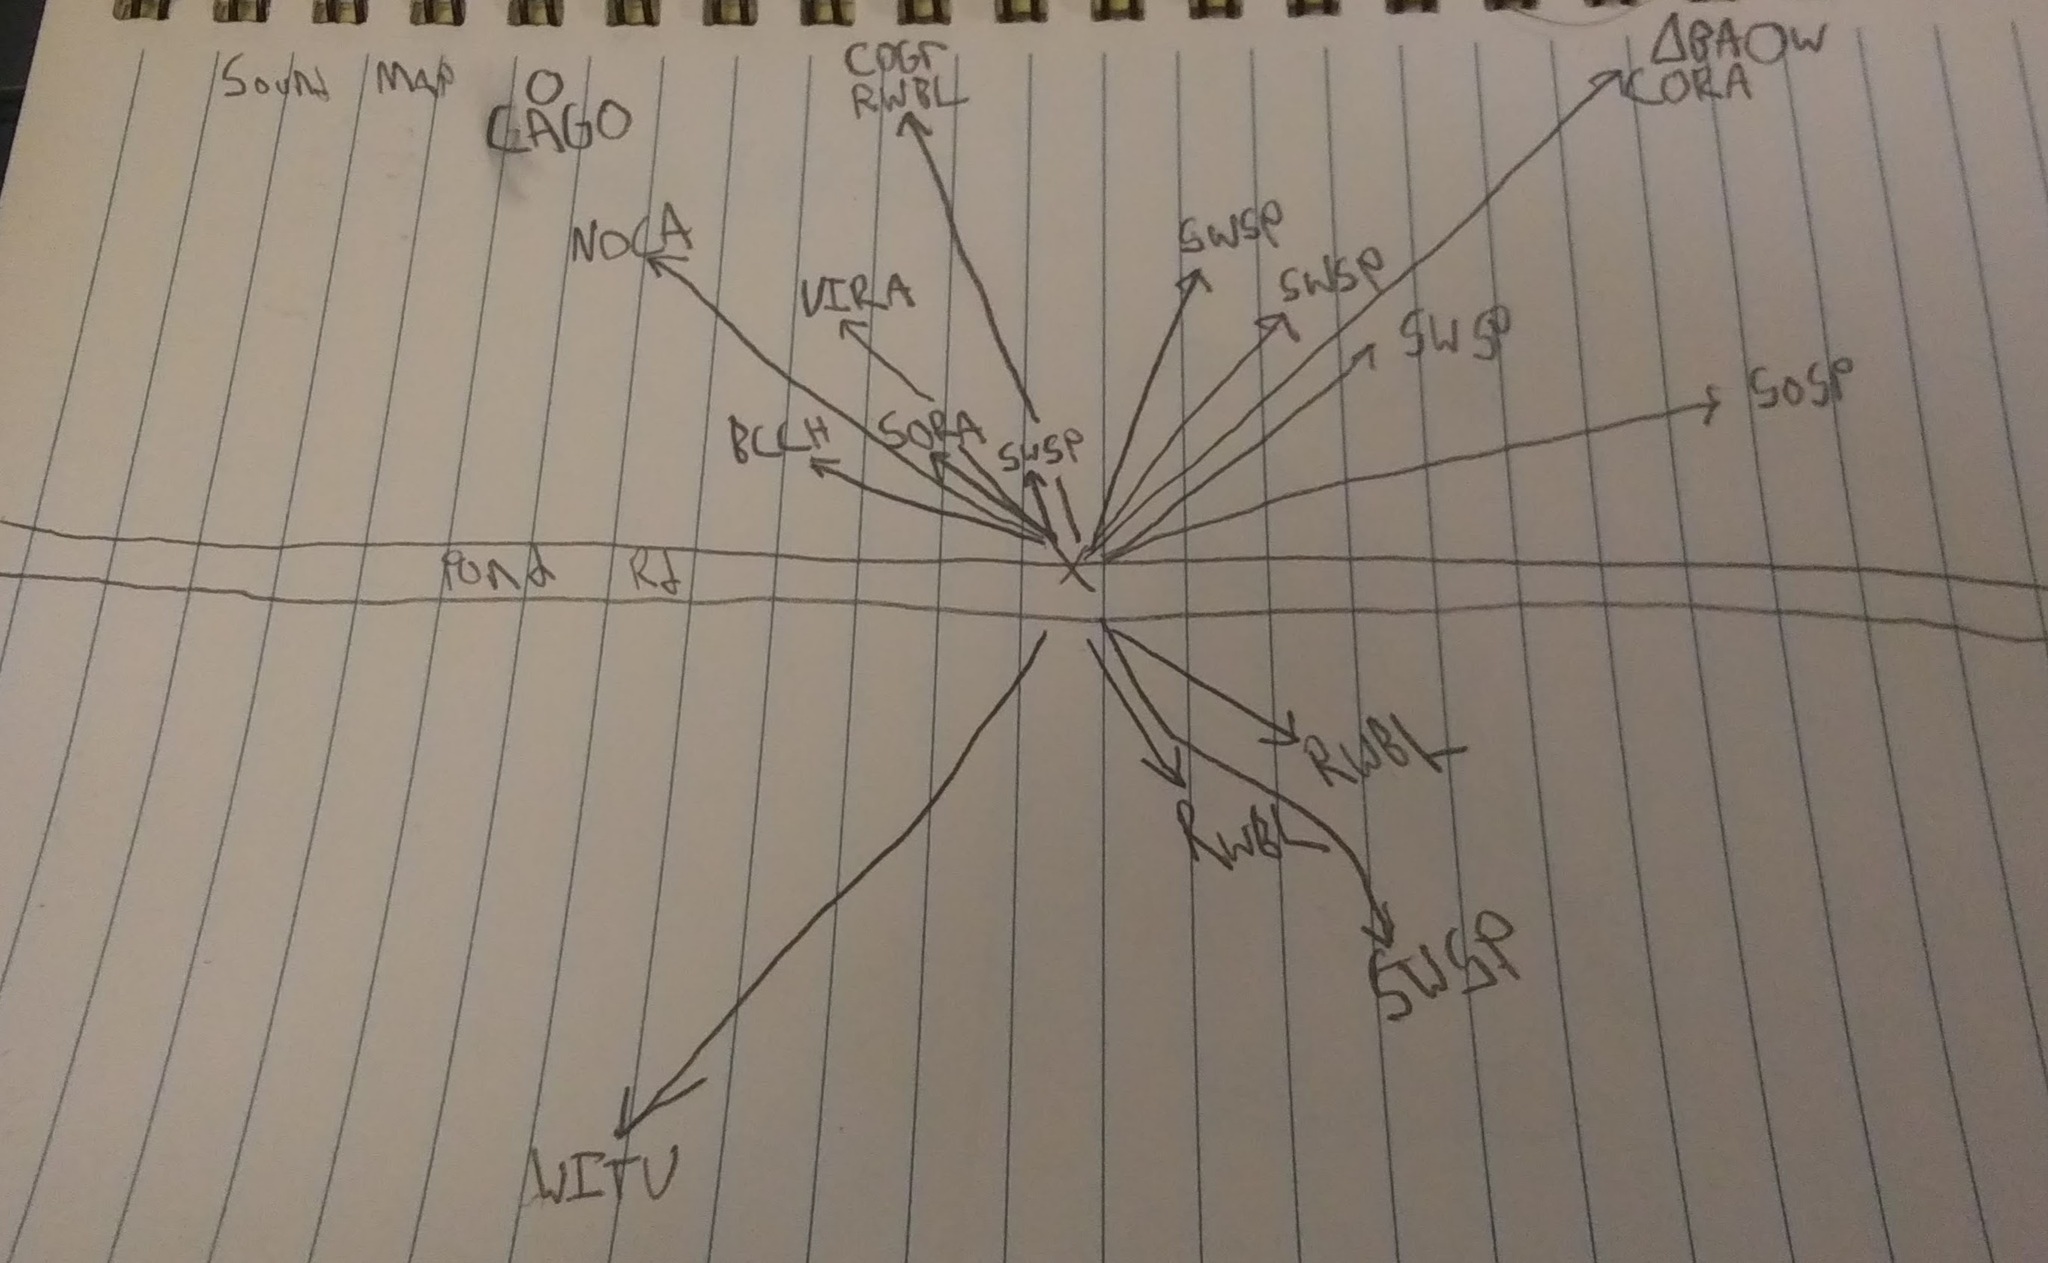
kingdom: Animalia
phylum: Chordata
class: Aves
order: Gruiformes
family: Rallidae
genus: Porzana
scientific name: Porzana carolina
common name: Sora
